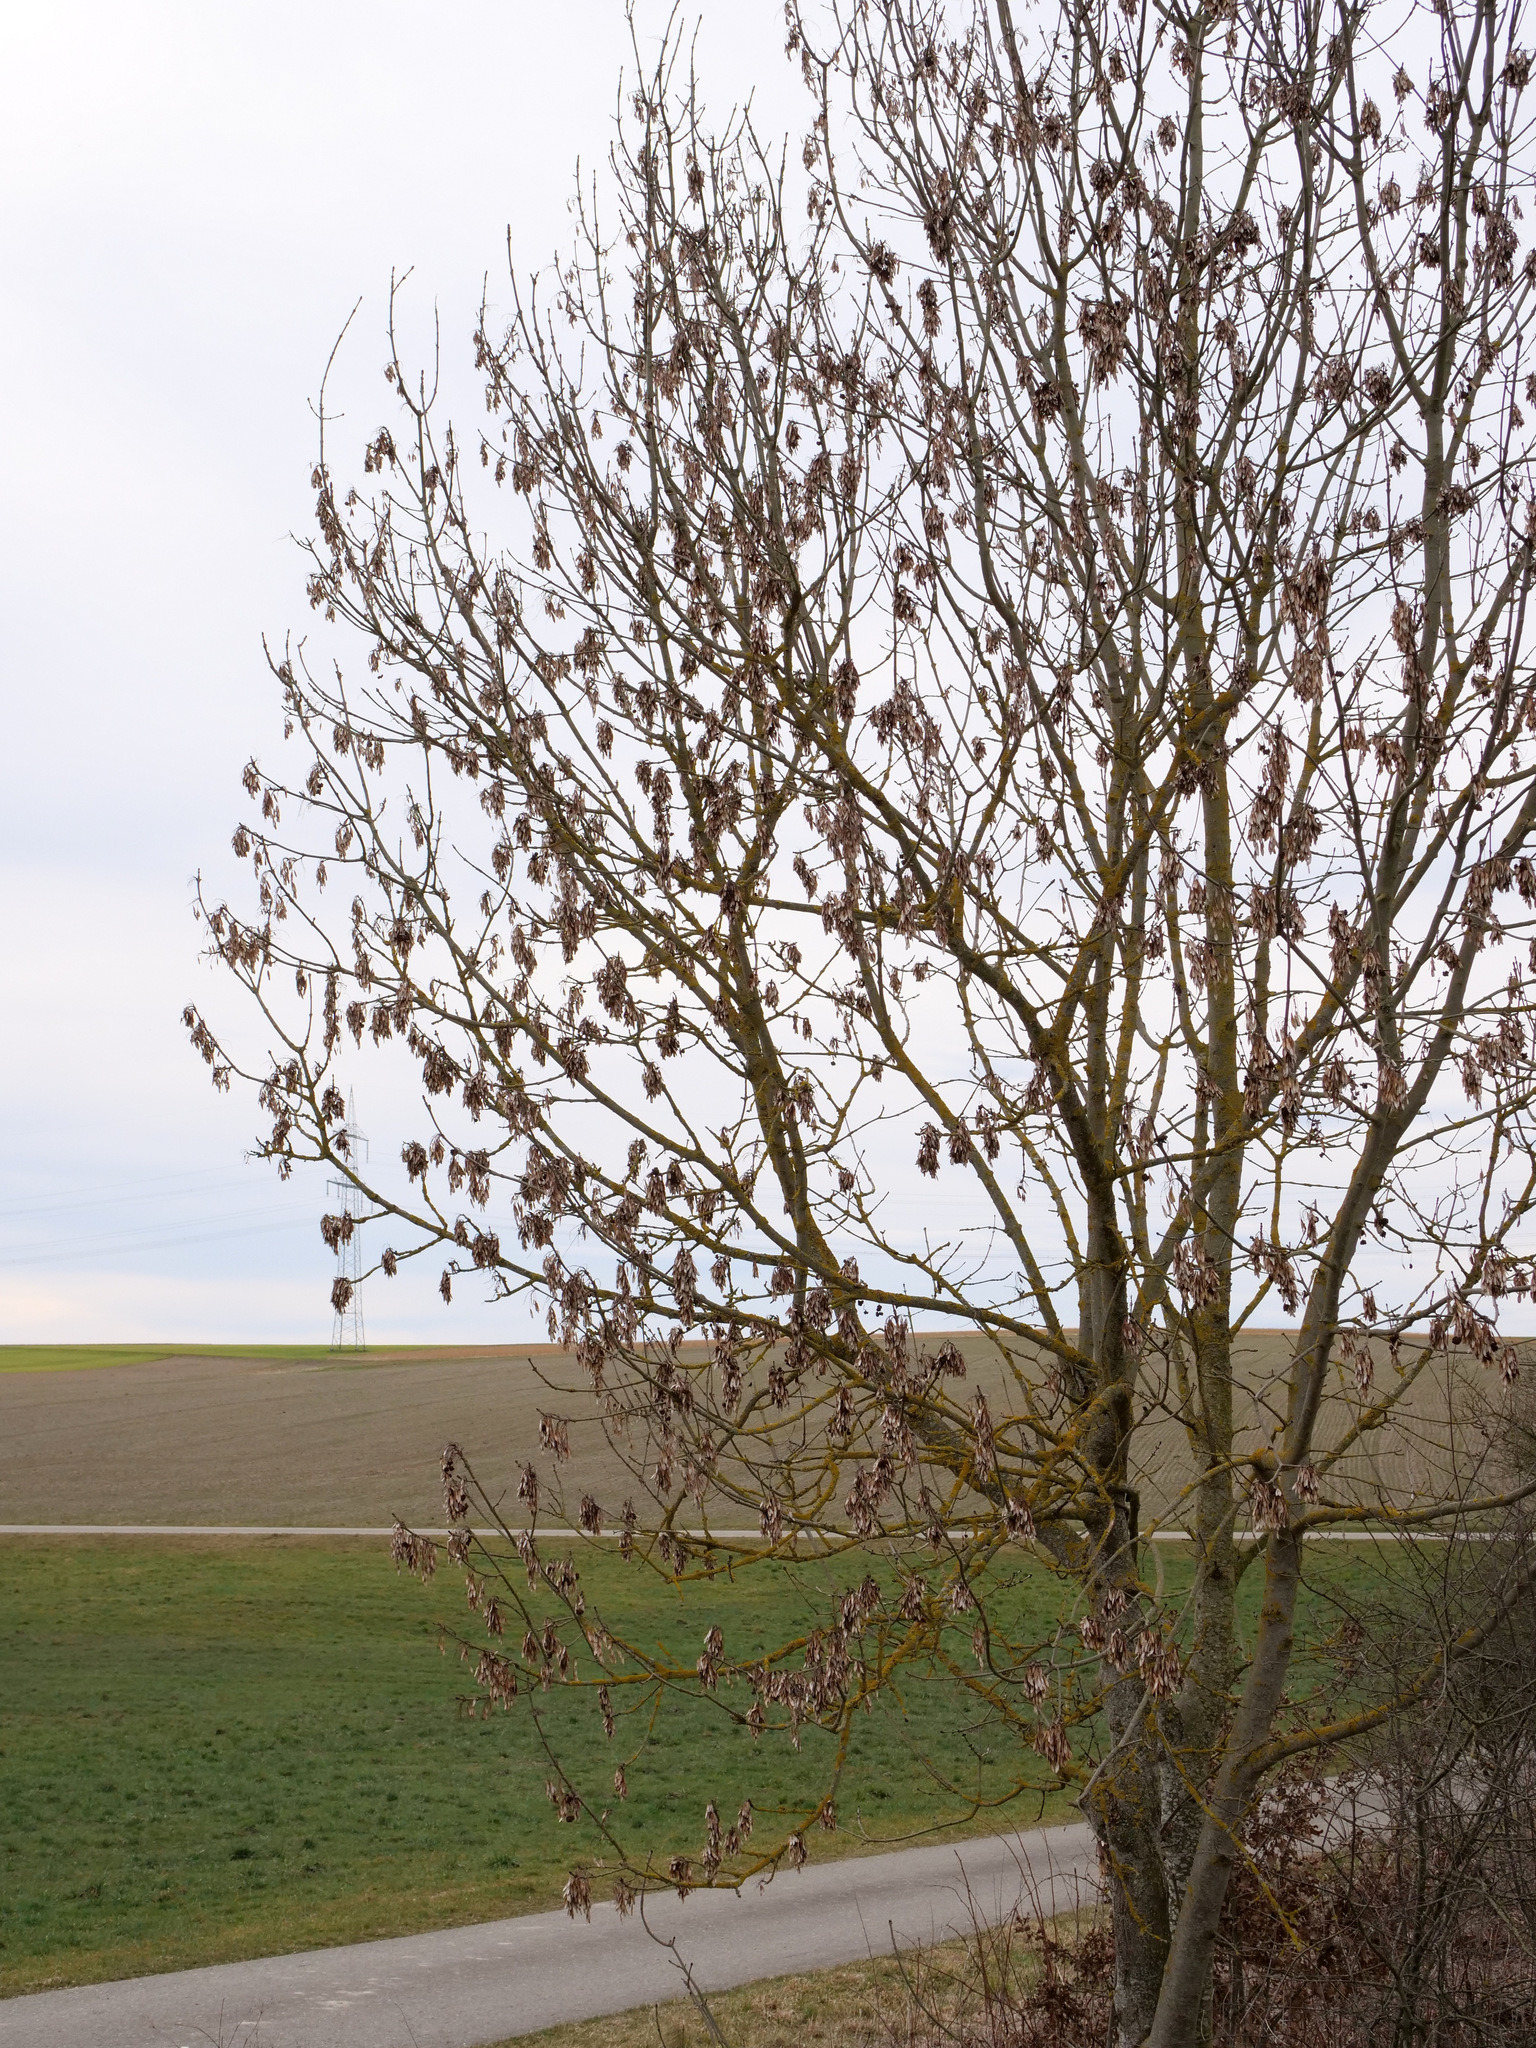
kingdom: Plantae
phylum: Tracheophyta
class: Magnoliopsida
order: Lamiales
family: Oleaceae
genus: Fraxinus
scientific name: Fraxinus excelsior
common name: European ash
